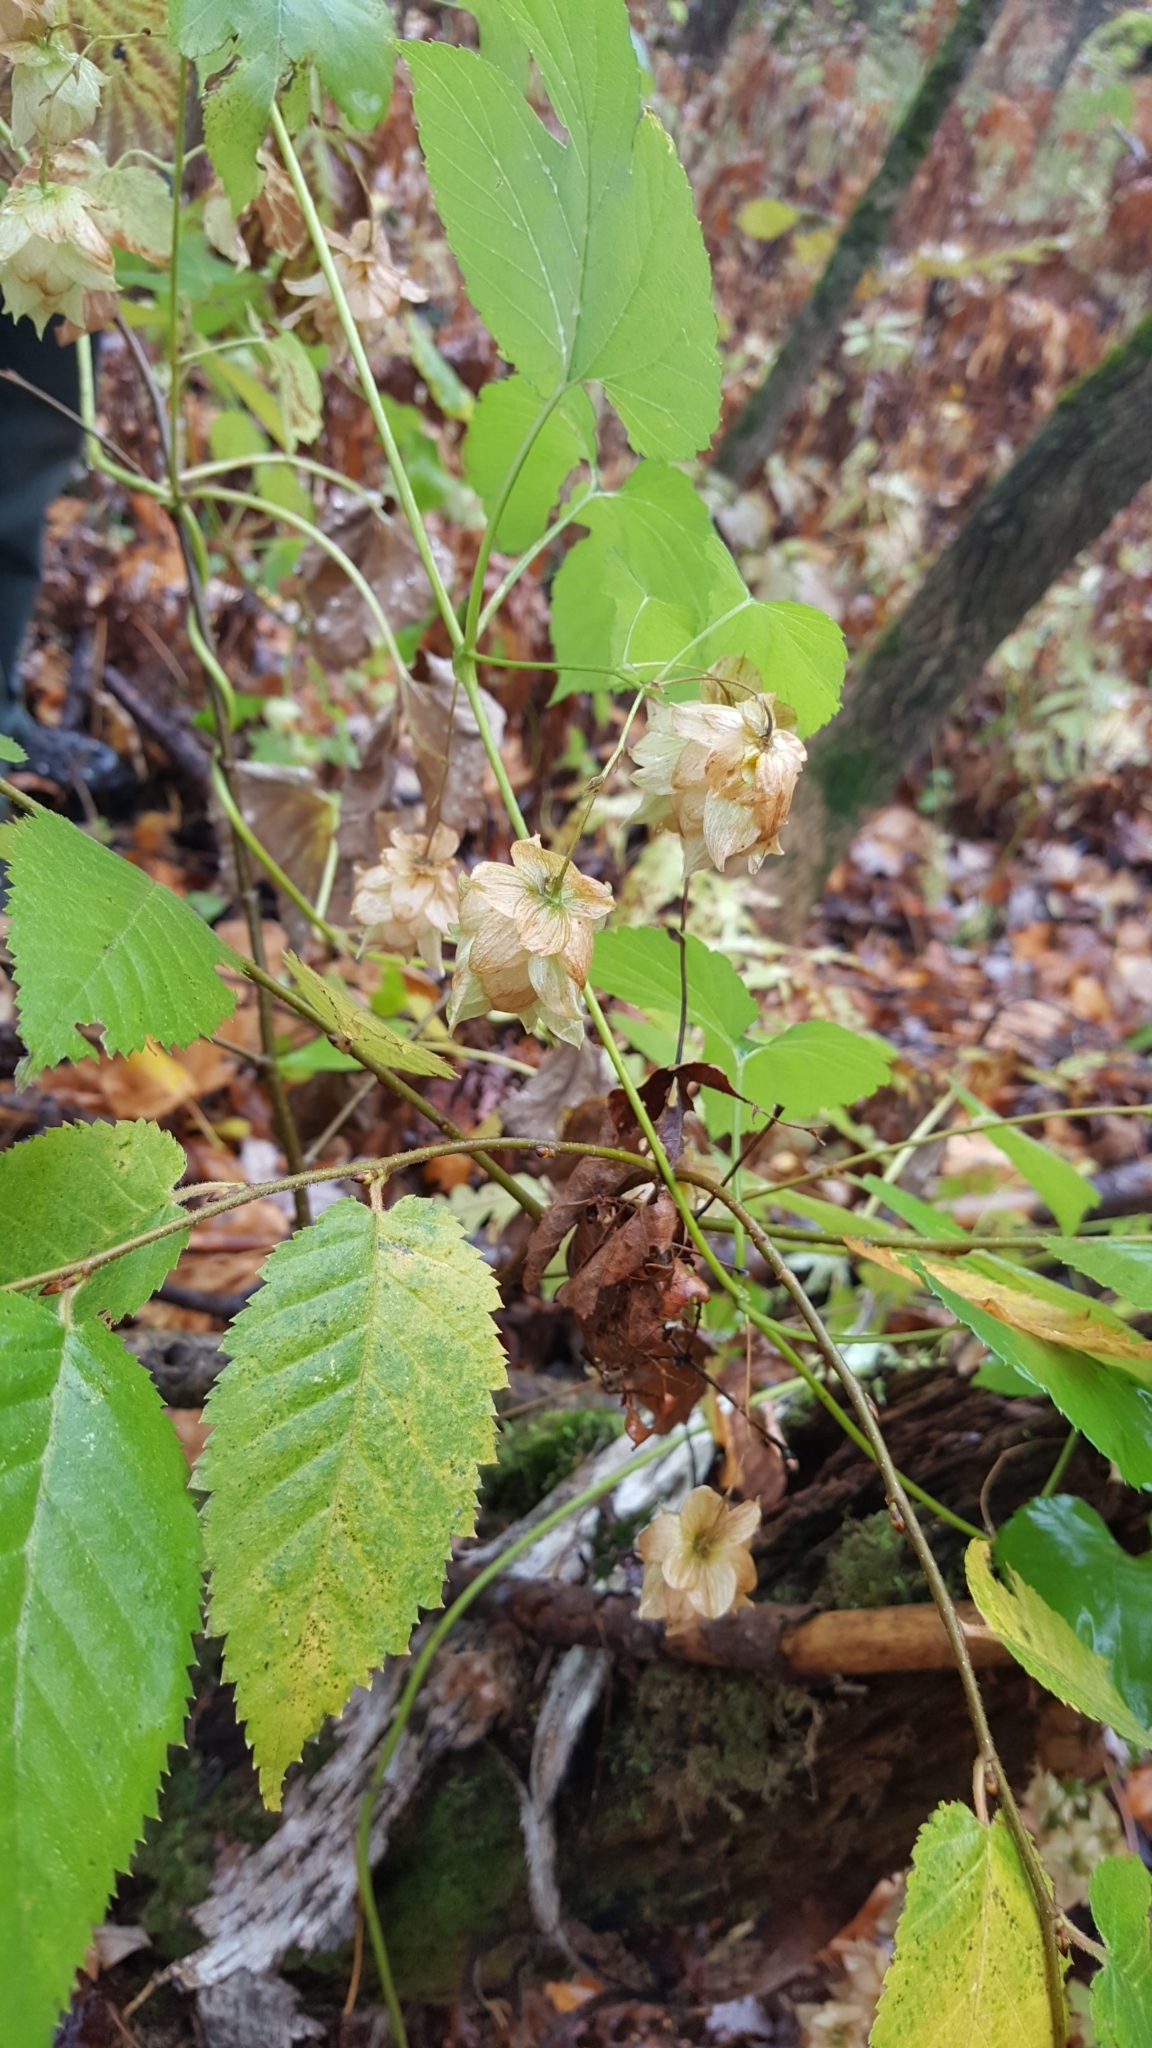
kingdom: Plantae
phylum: Tracheophyta
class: Magnoliopsida
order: Rosales
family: Cannabaceae
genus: Humulus
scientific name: Humulus lupulus
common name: Hop
